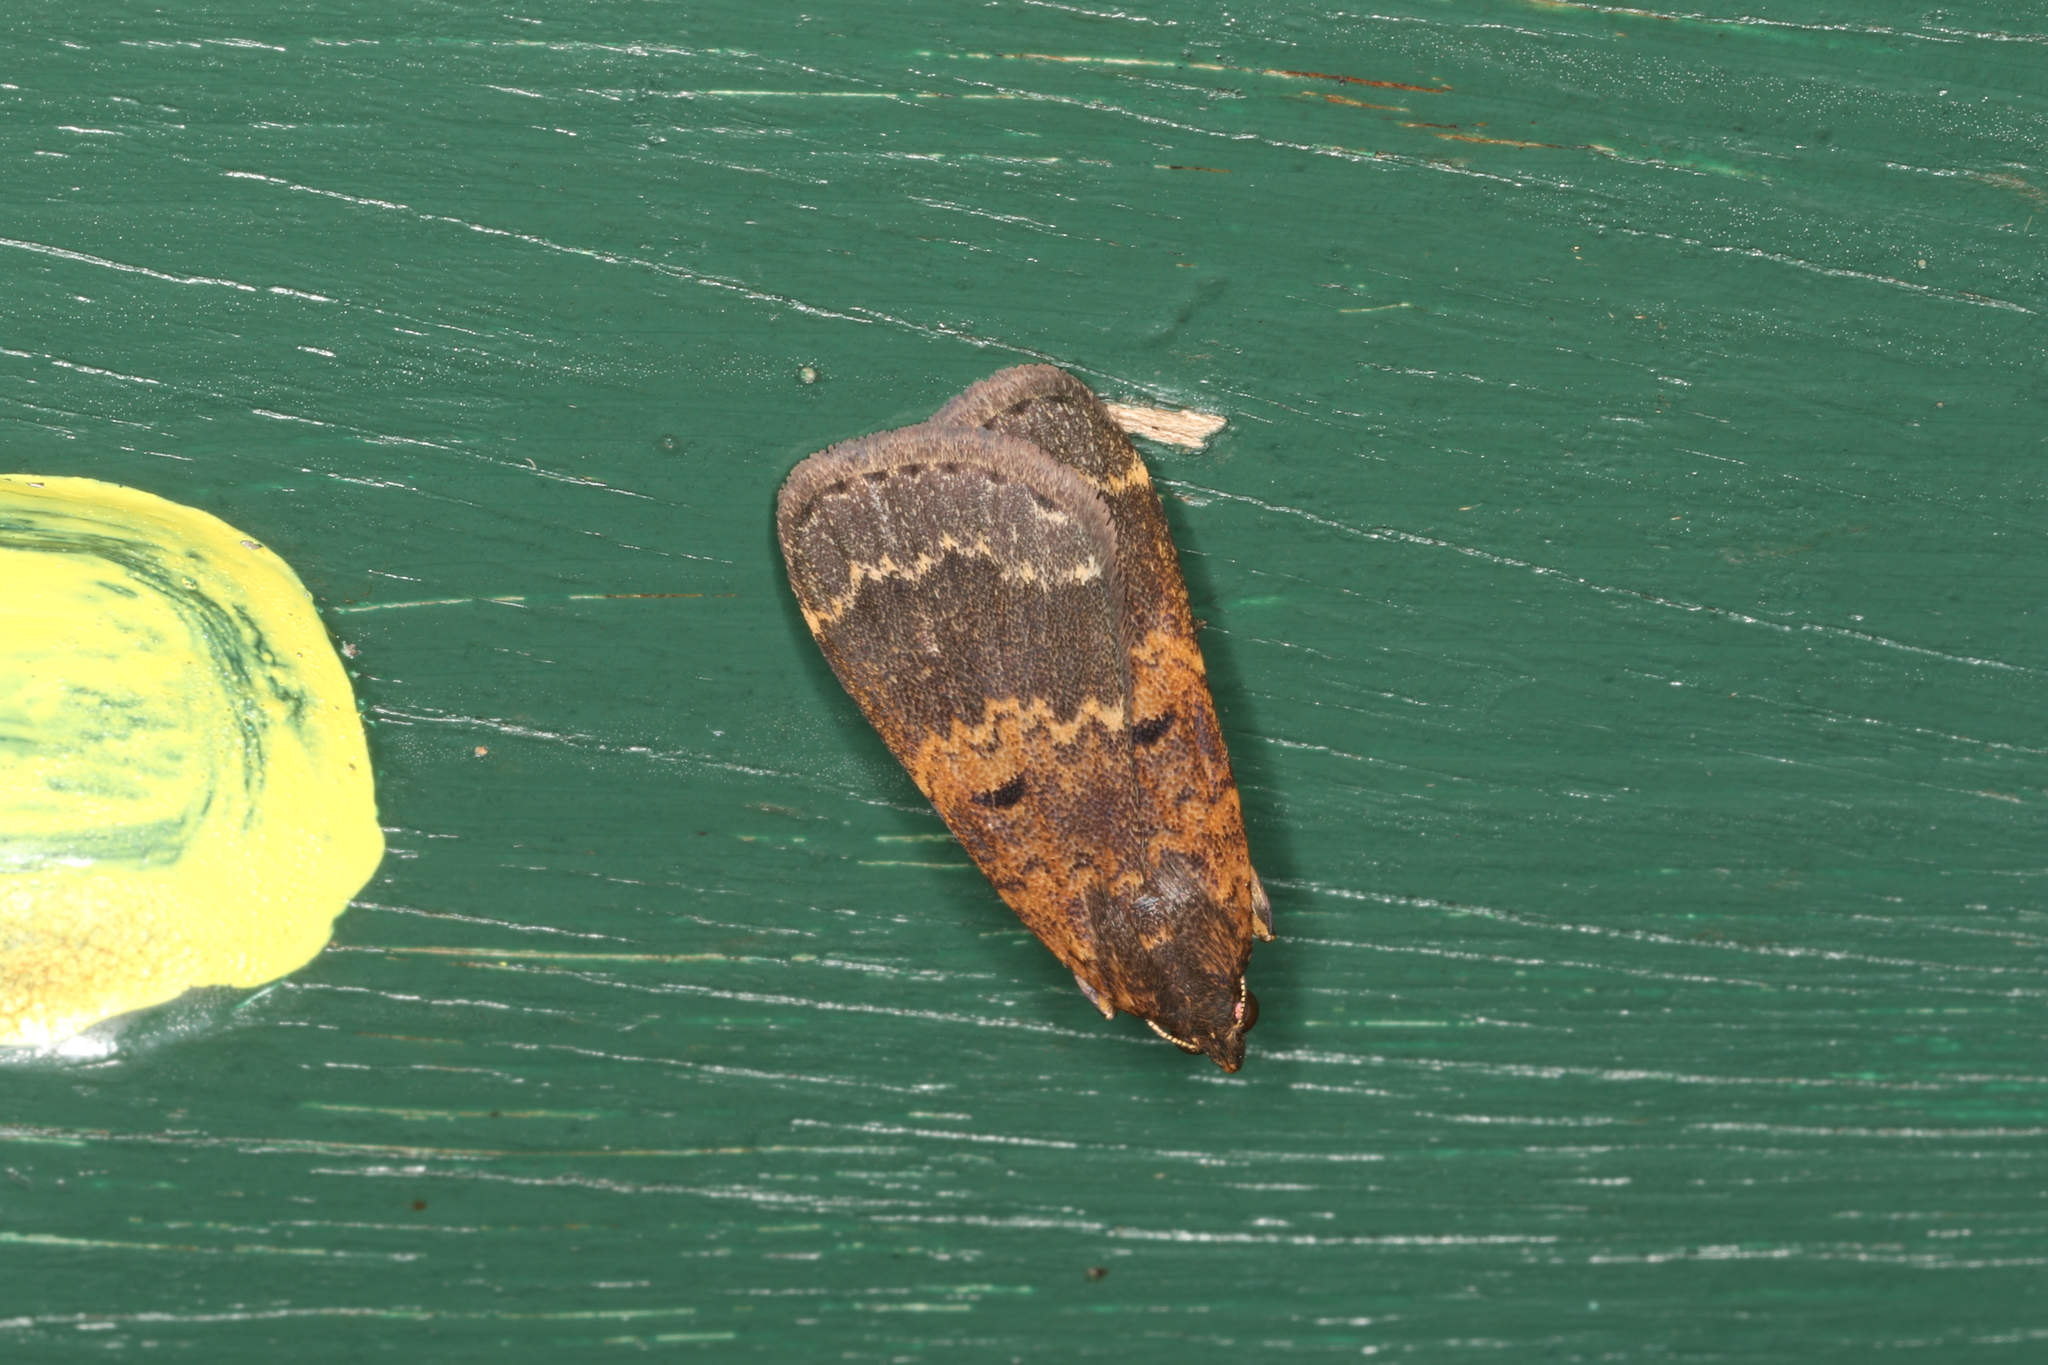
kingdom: Animalia
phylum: Arthropoda
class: Insecta
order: Lepidoptera
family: Erebidae
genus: Hydrillodes
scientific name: Hydrillodes funestalis
